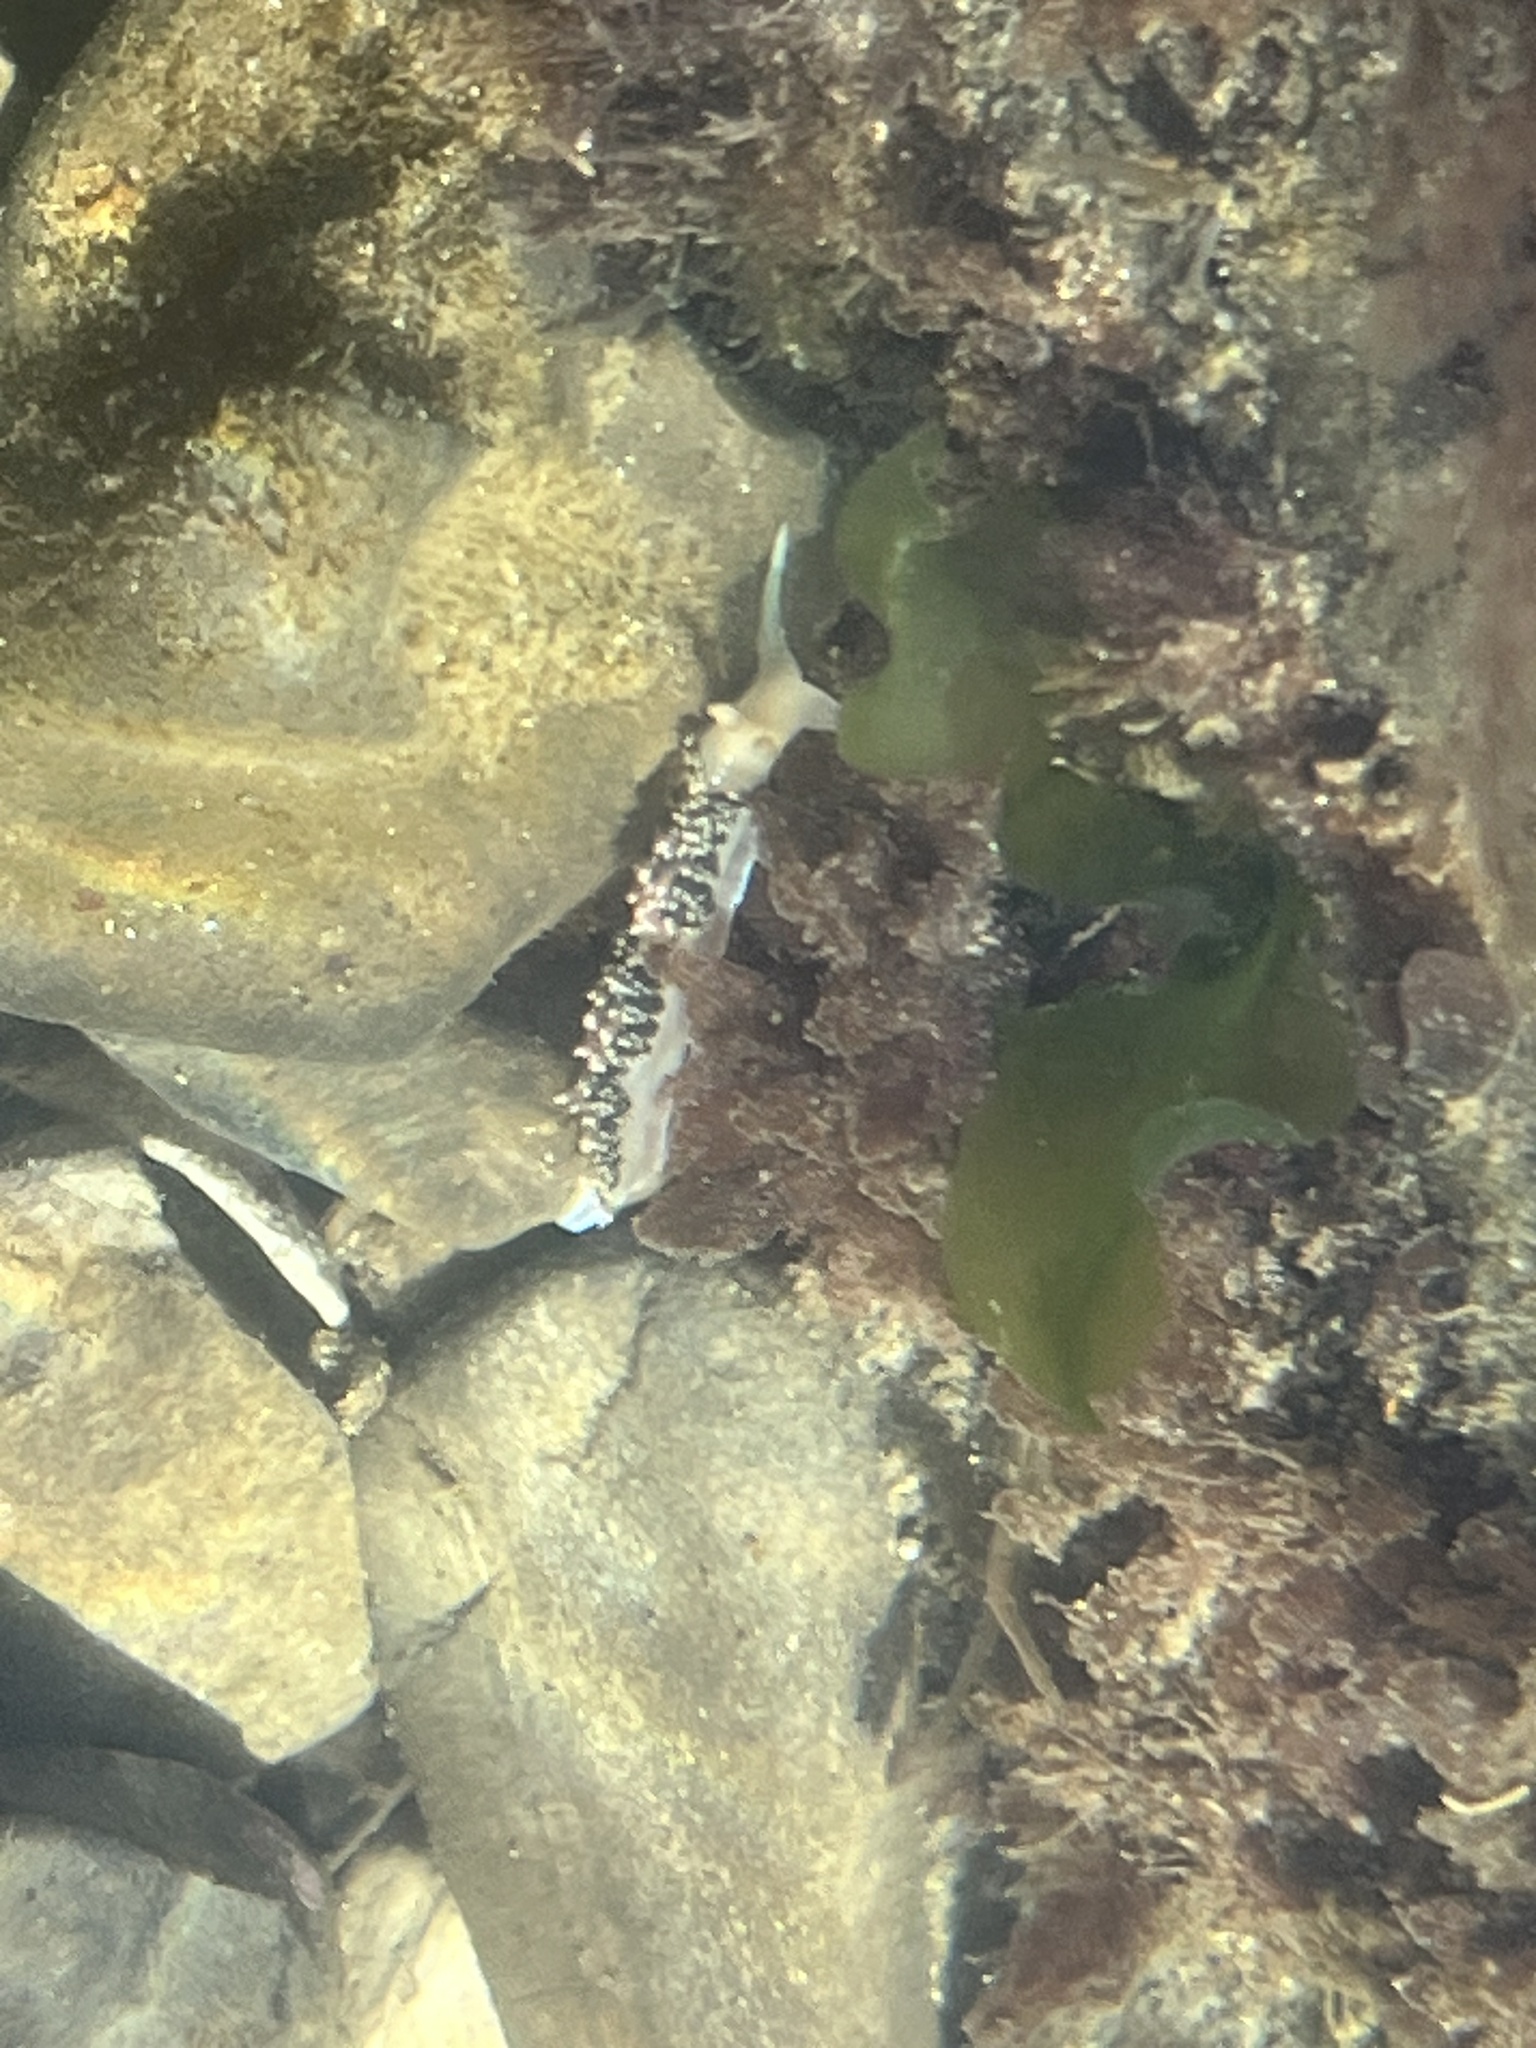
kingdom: Animalia
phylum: Mollusca
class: Gastropoda
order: Nudibranchia
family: Facelinidae
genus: Phidiana
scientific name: Phidiana hiltoni
